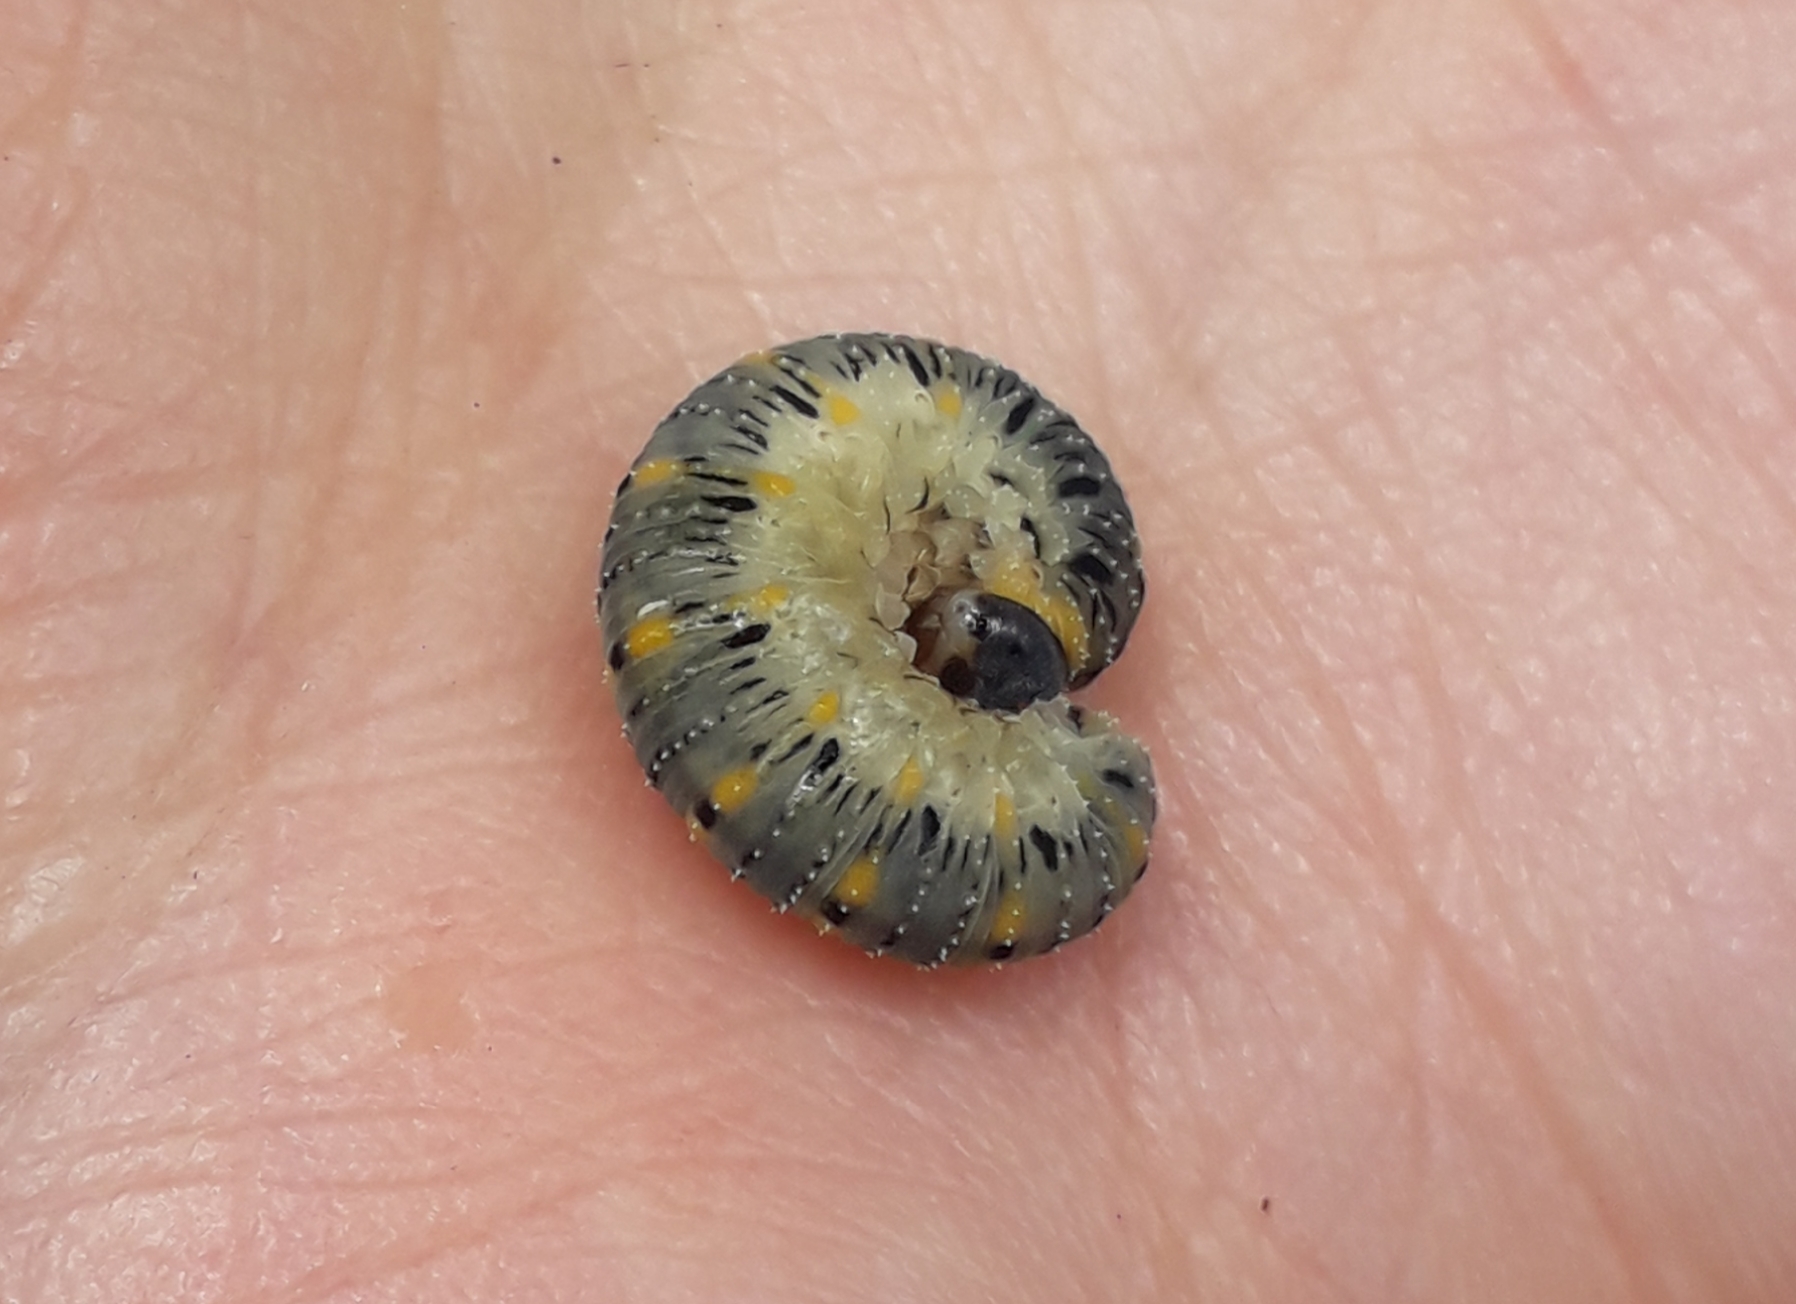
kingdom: Animalia
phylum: Arthropoda
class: Insecta
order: Hymenoptera
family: Cimbicidae
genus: Abia
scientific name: Abia fulgens
